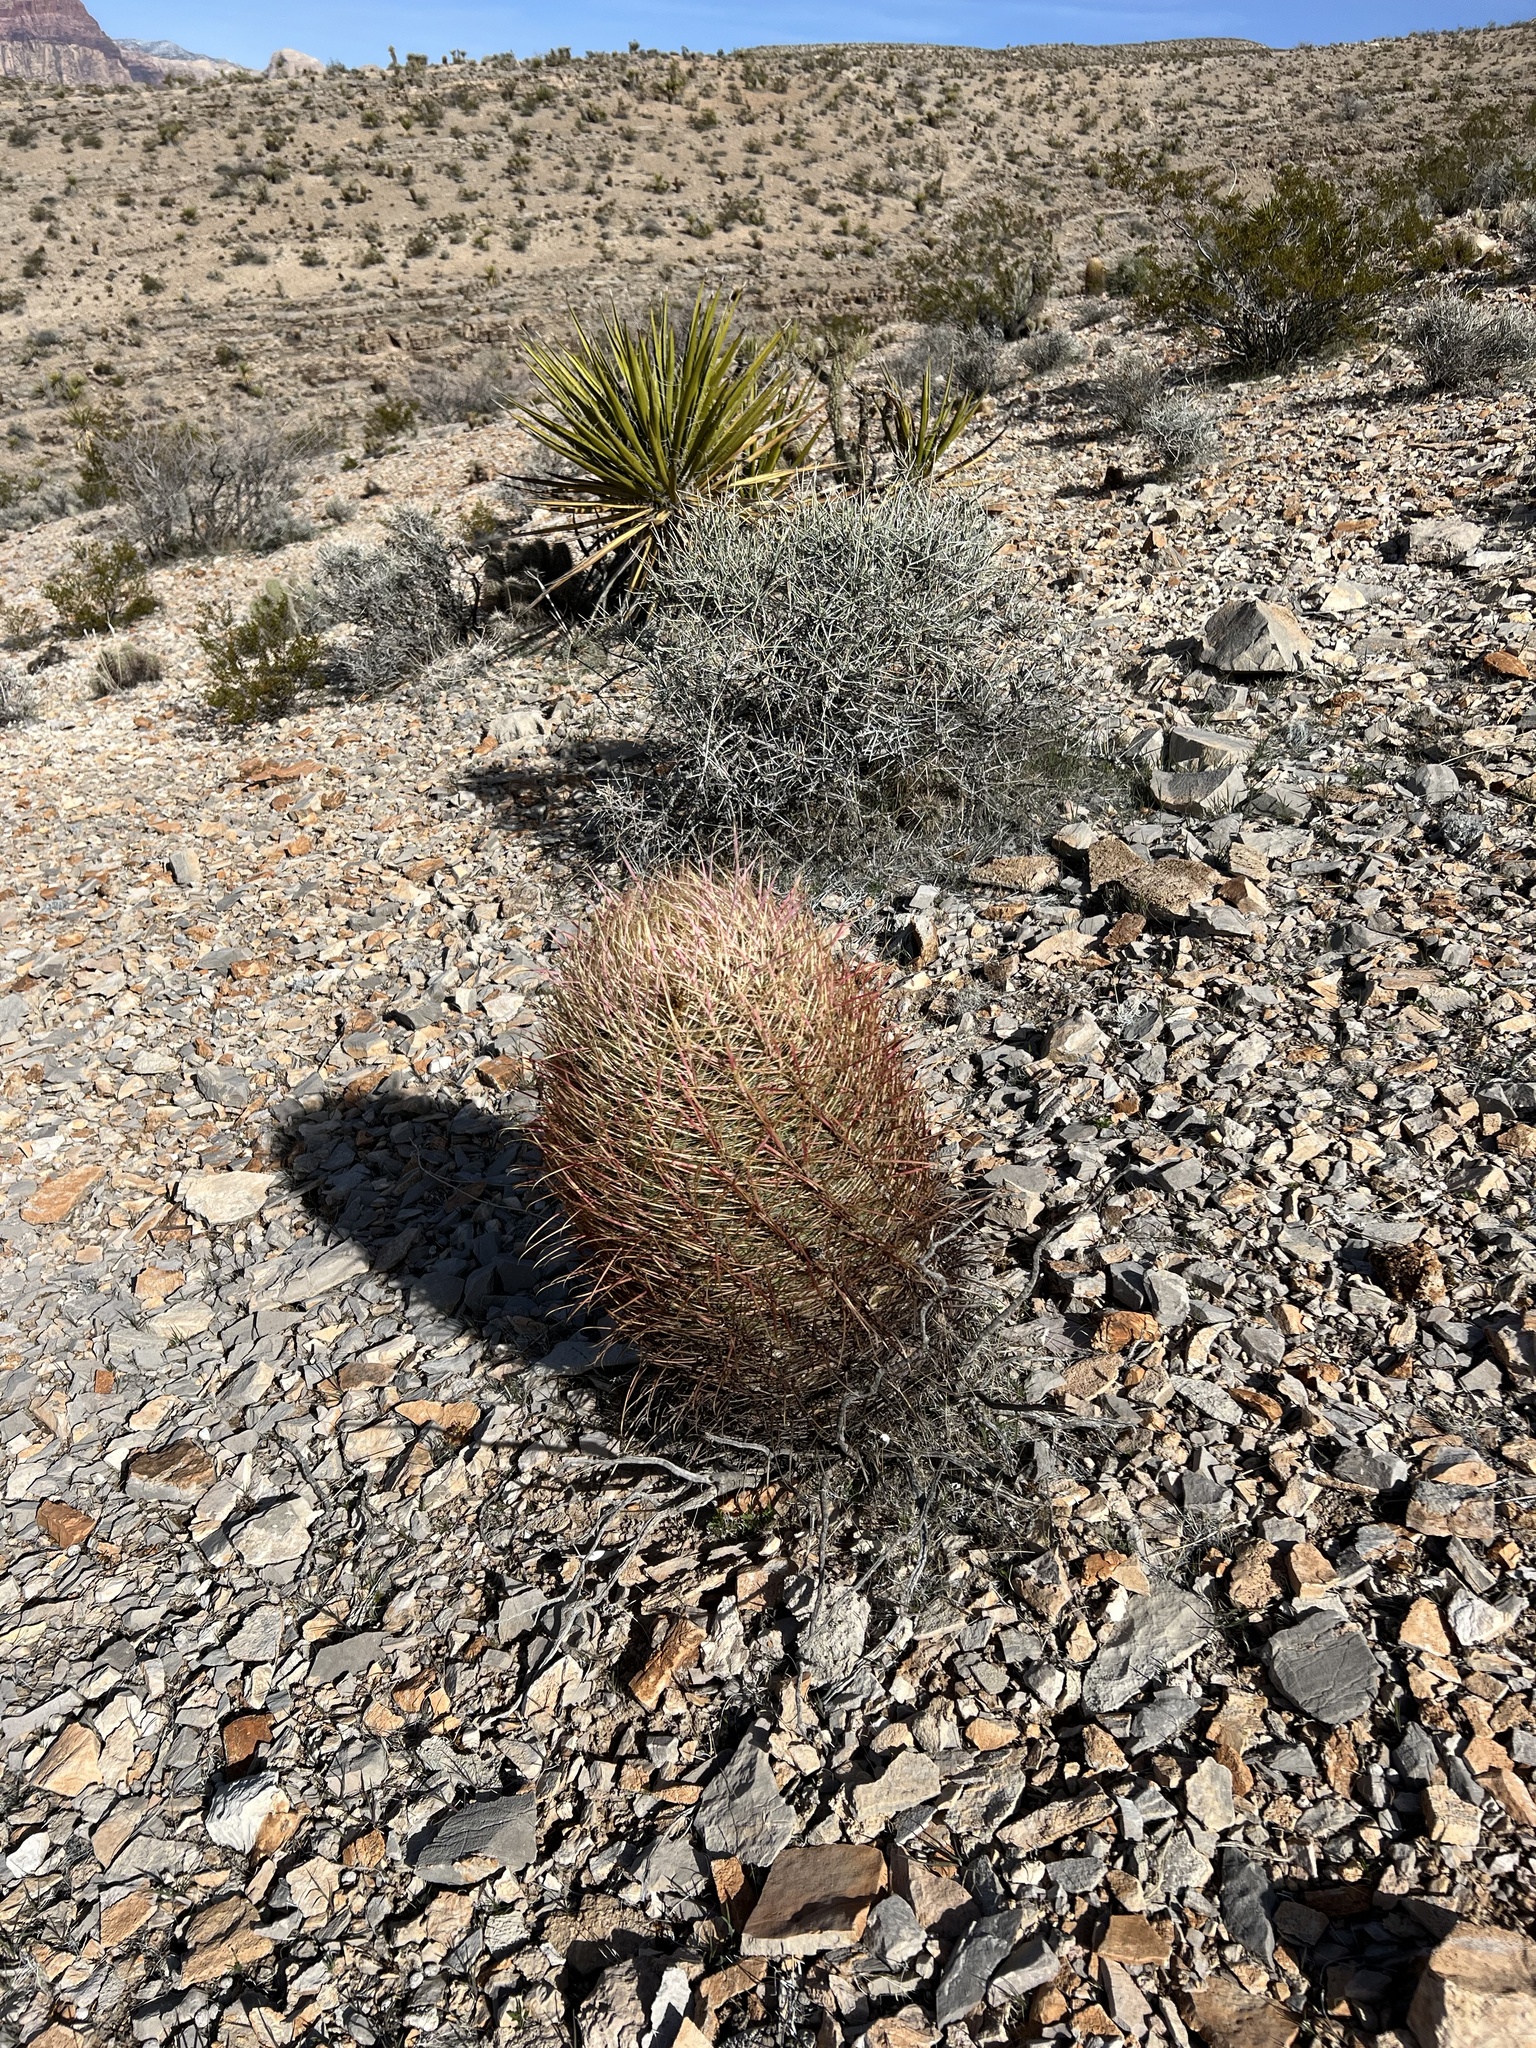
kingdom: Plantae
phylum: Tracheophyta
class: Magnoliopsida
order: Caryophyllales
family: Cactaceae
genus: Ferocactus
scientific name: Ferocactus cylindraceus
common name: California barrel cactus
